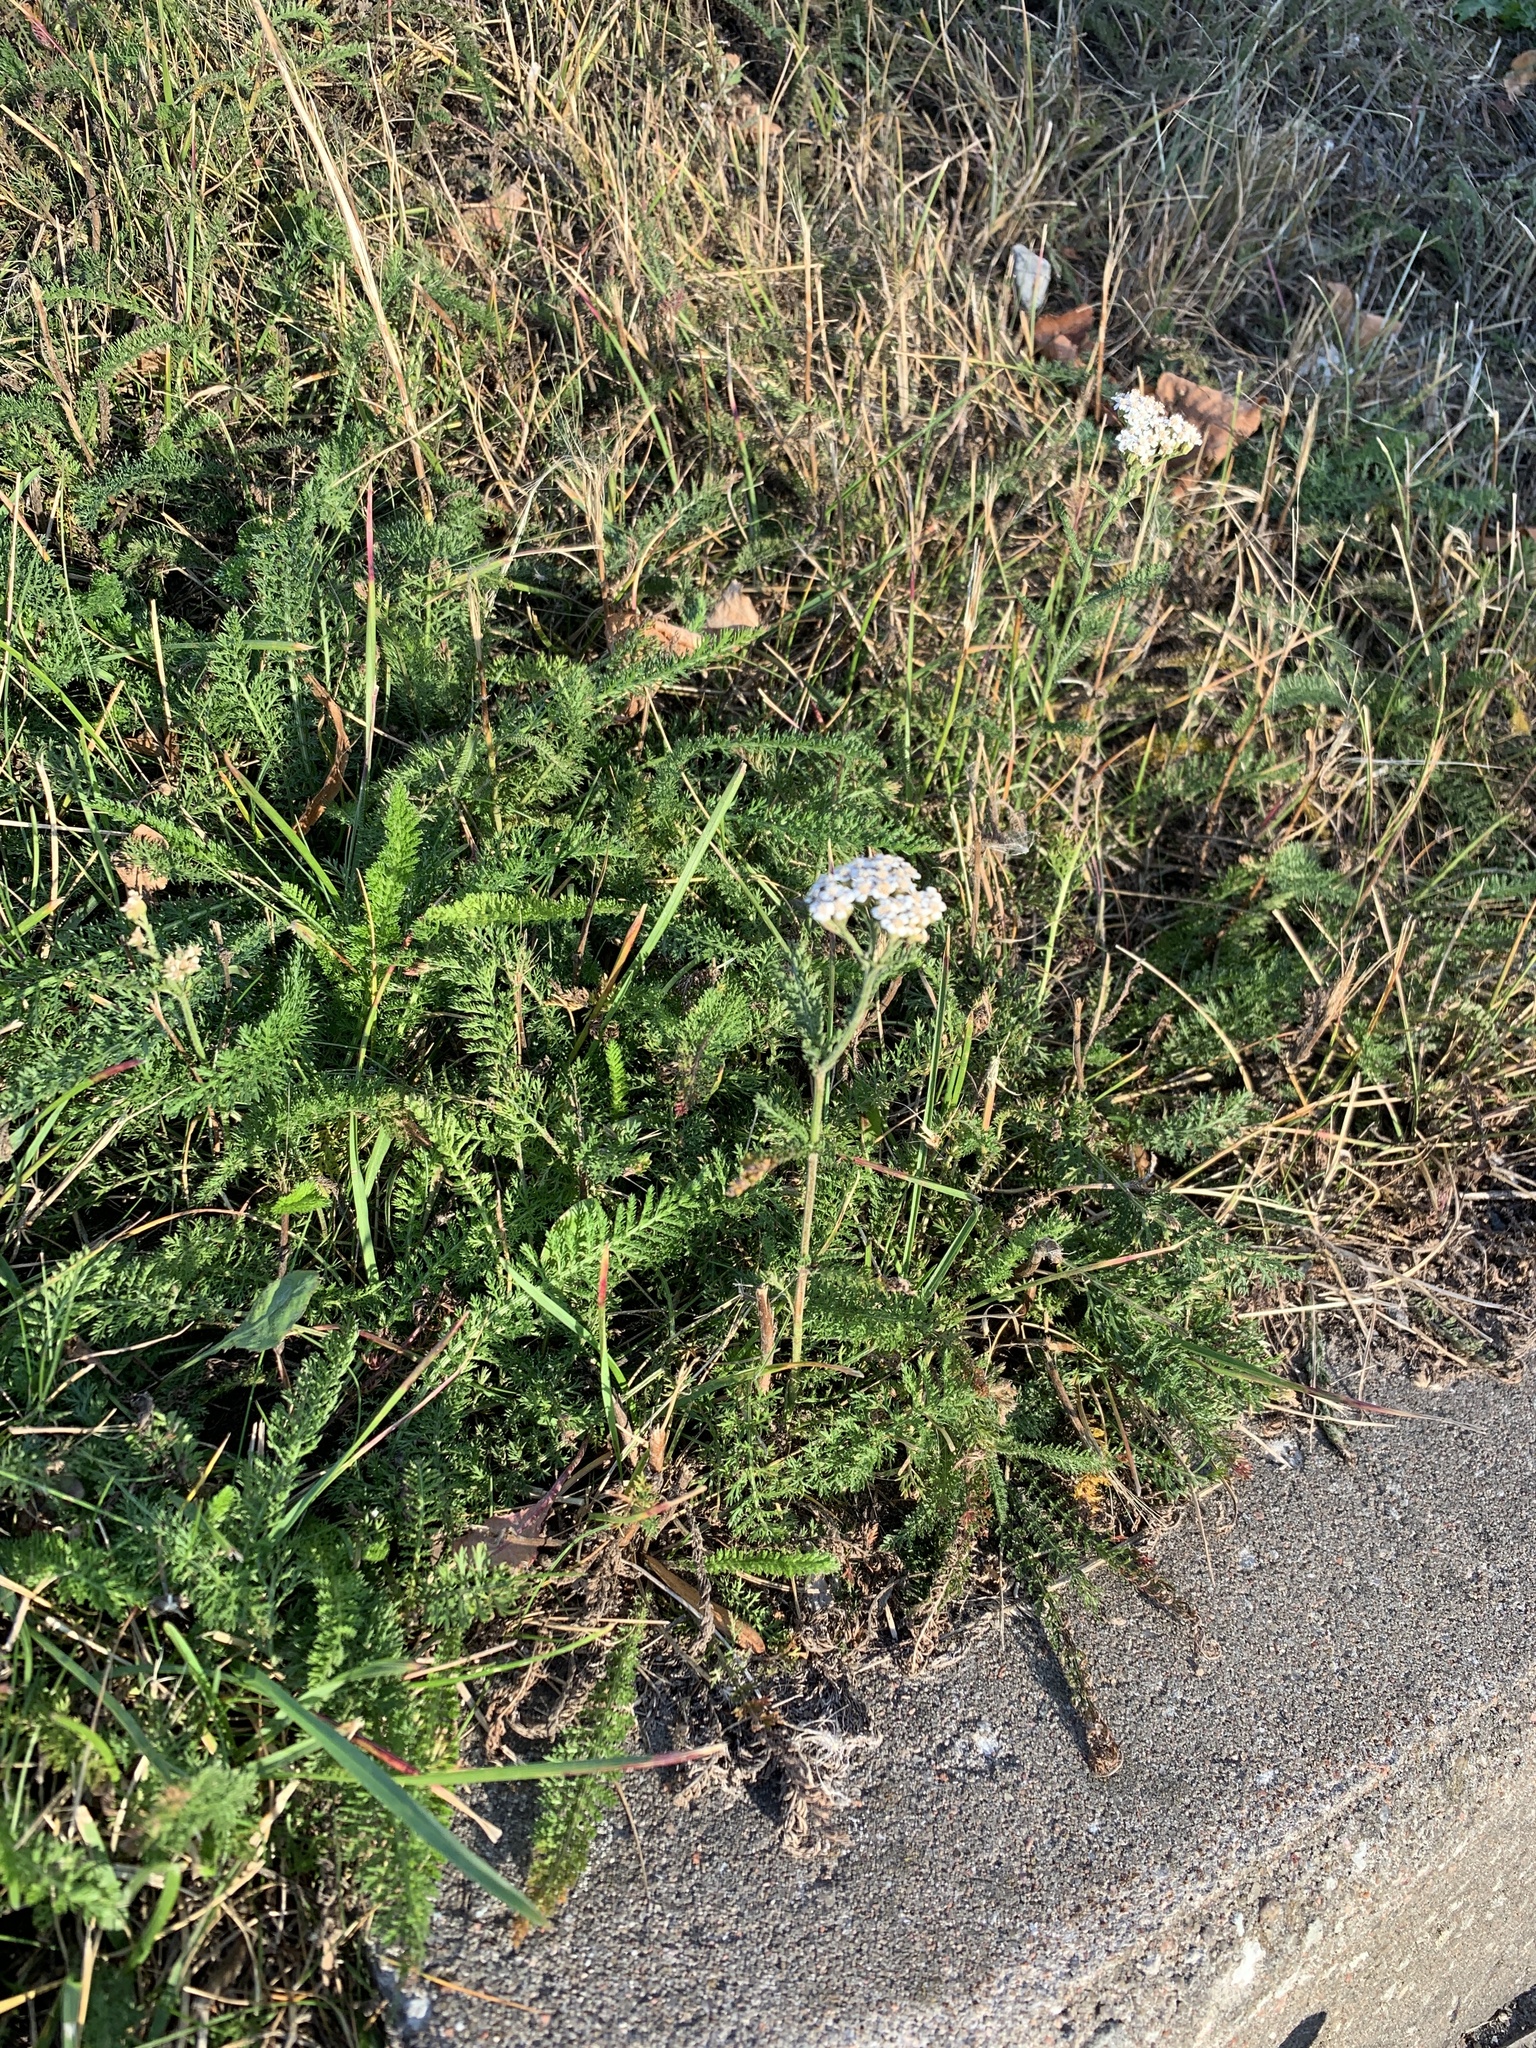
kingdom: Plantae
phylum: Tracheophyta
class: Magnoliopsida
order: Asterales
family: Asteraceae
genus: Achillea
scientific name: Achillea millefolium
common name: Yarrow
